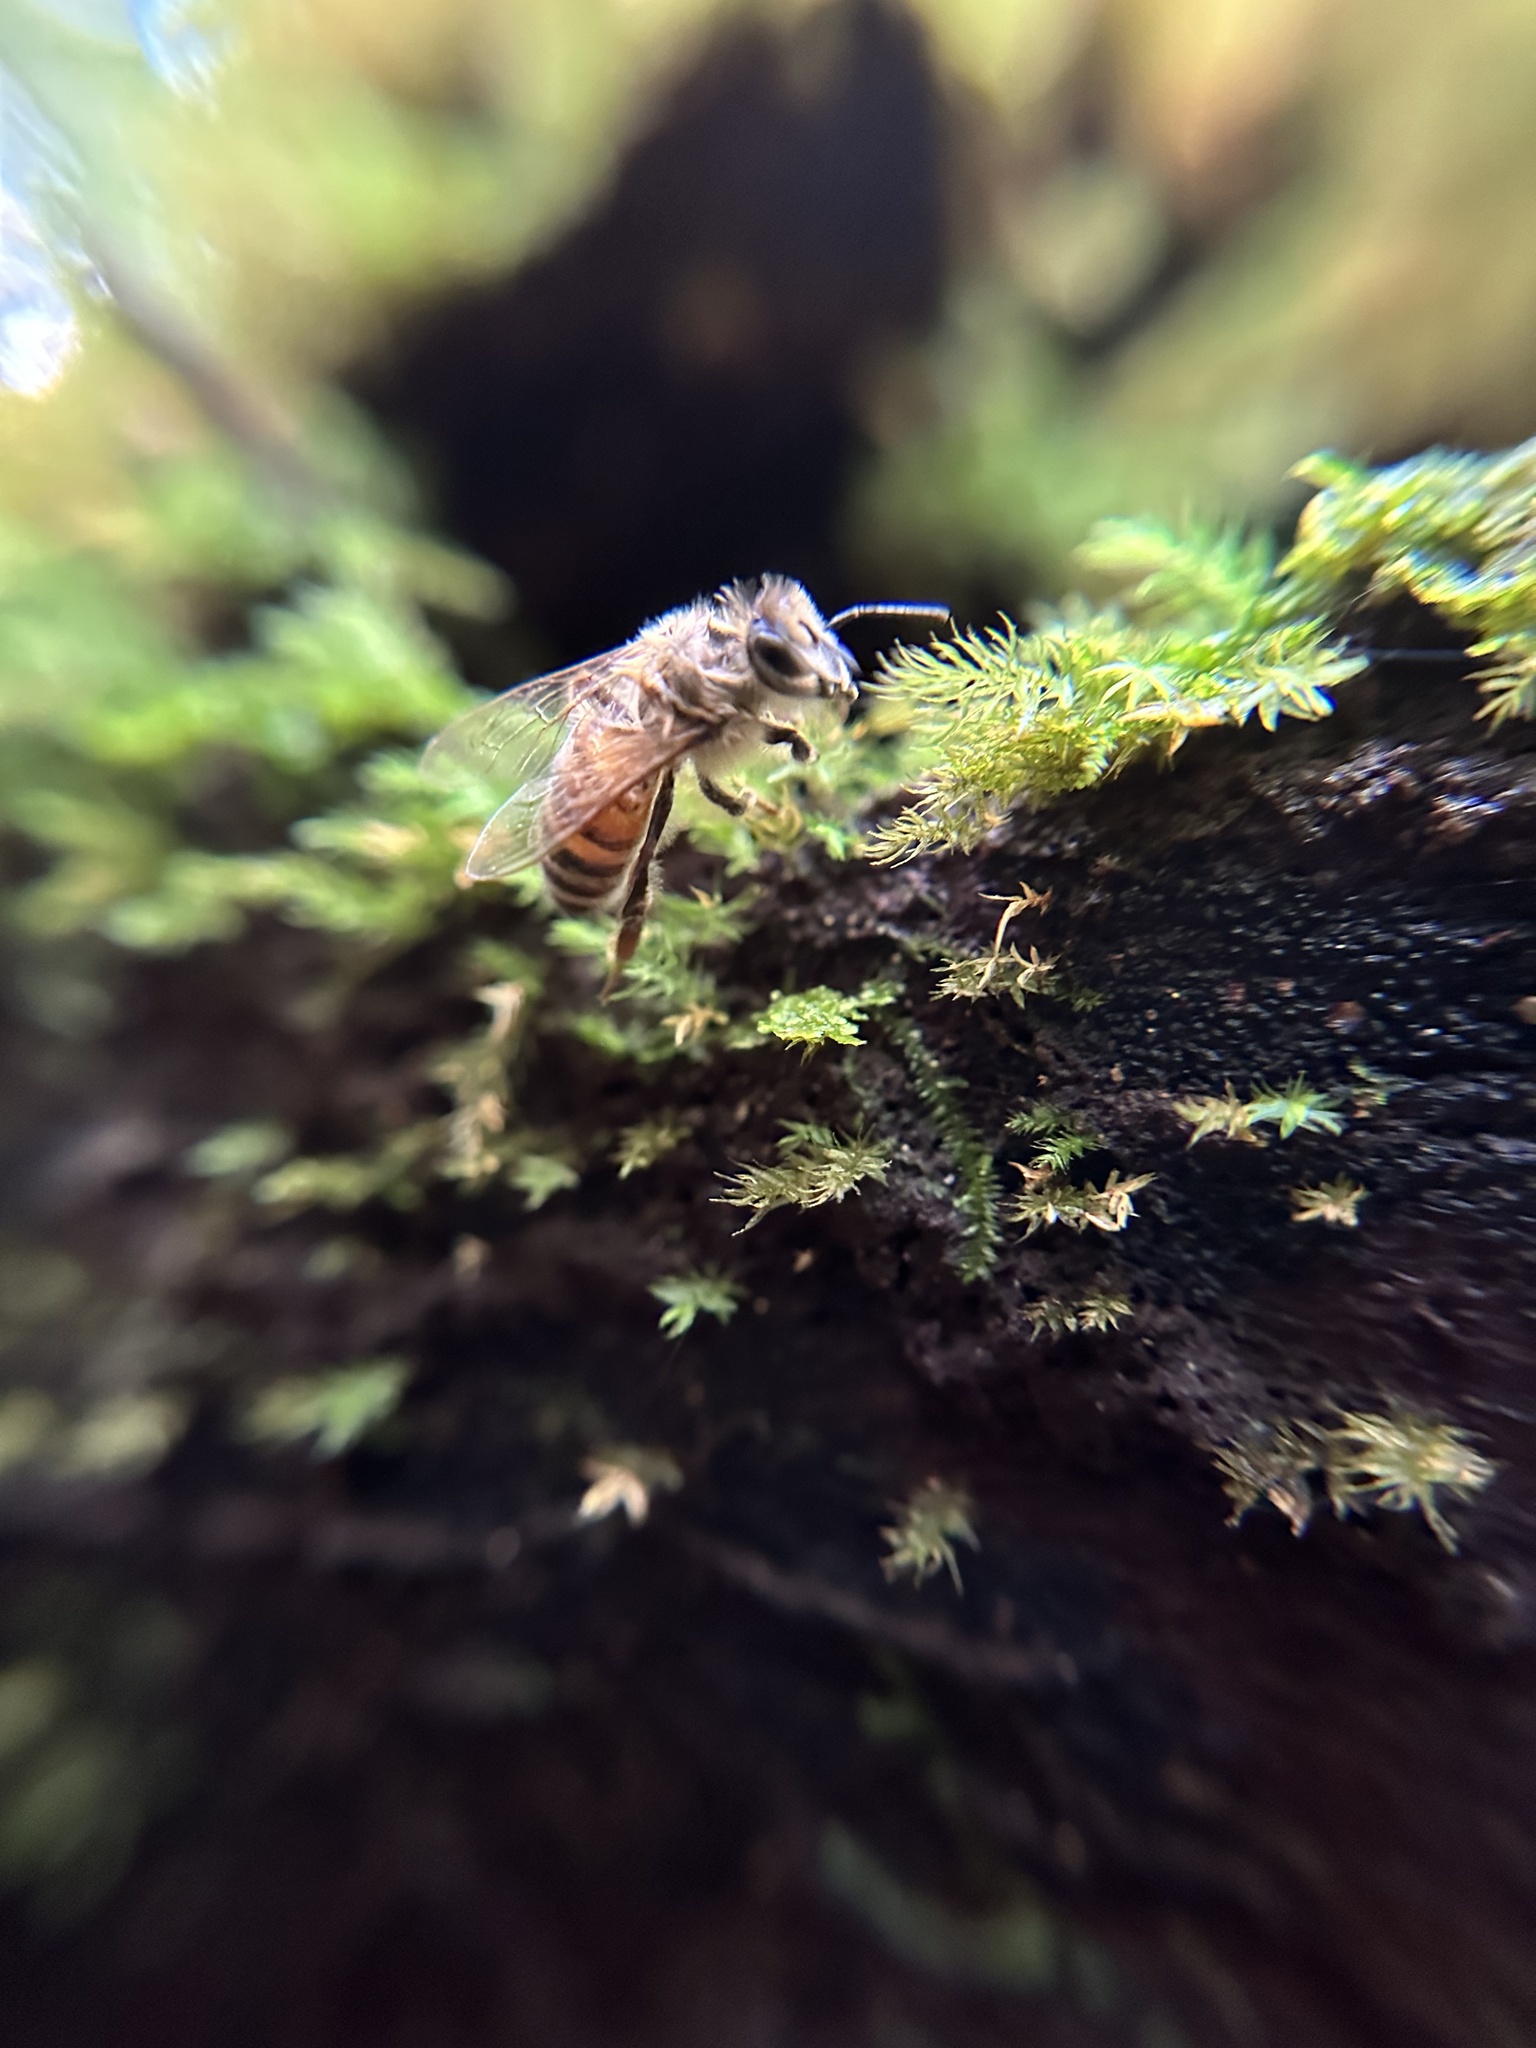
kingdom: Animalia
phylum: Arthropoda
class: Insecta
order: Hymenoptera
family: Apidae
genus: Apis
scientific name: Apis mellifera
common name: Honey bee
